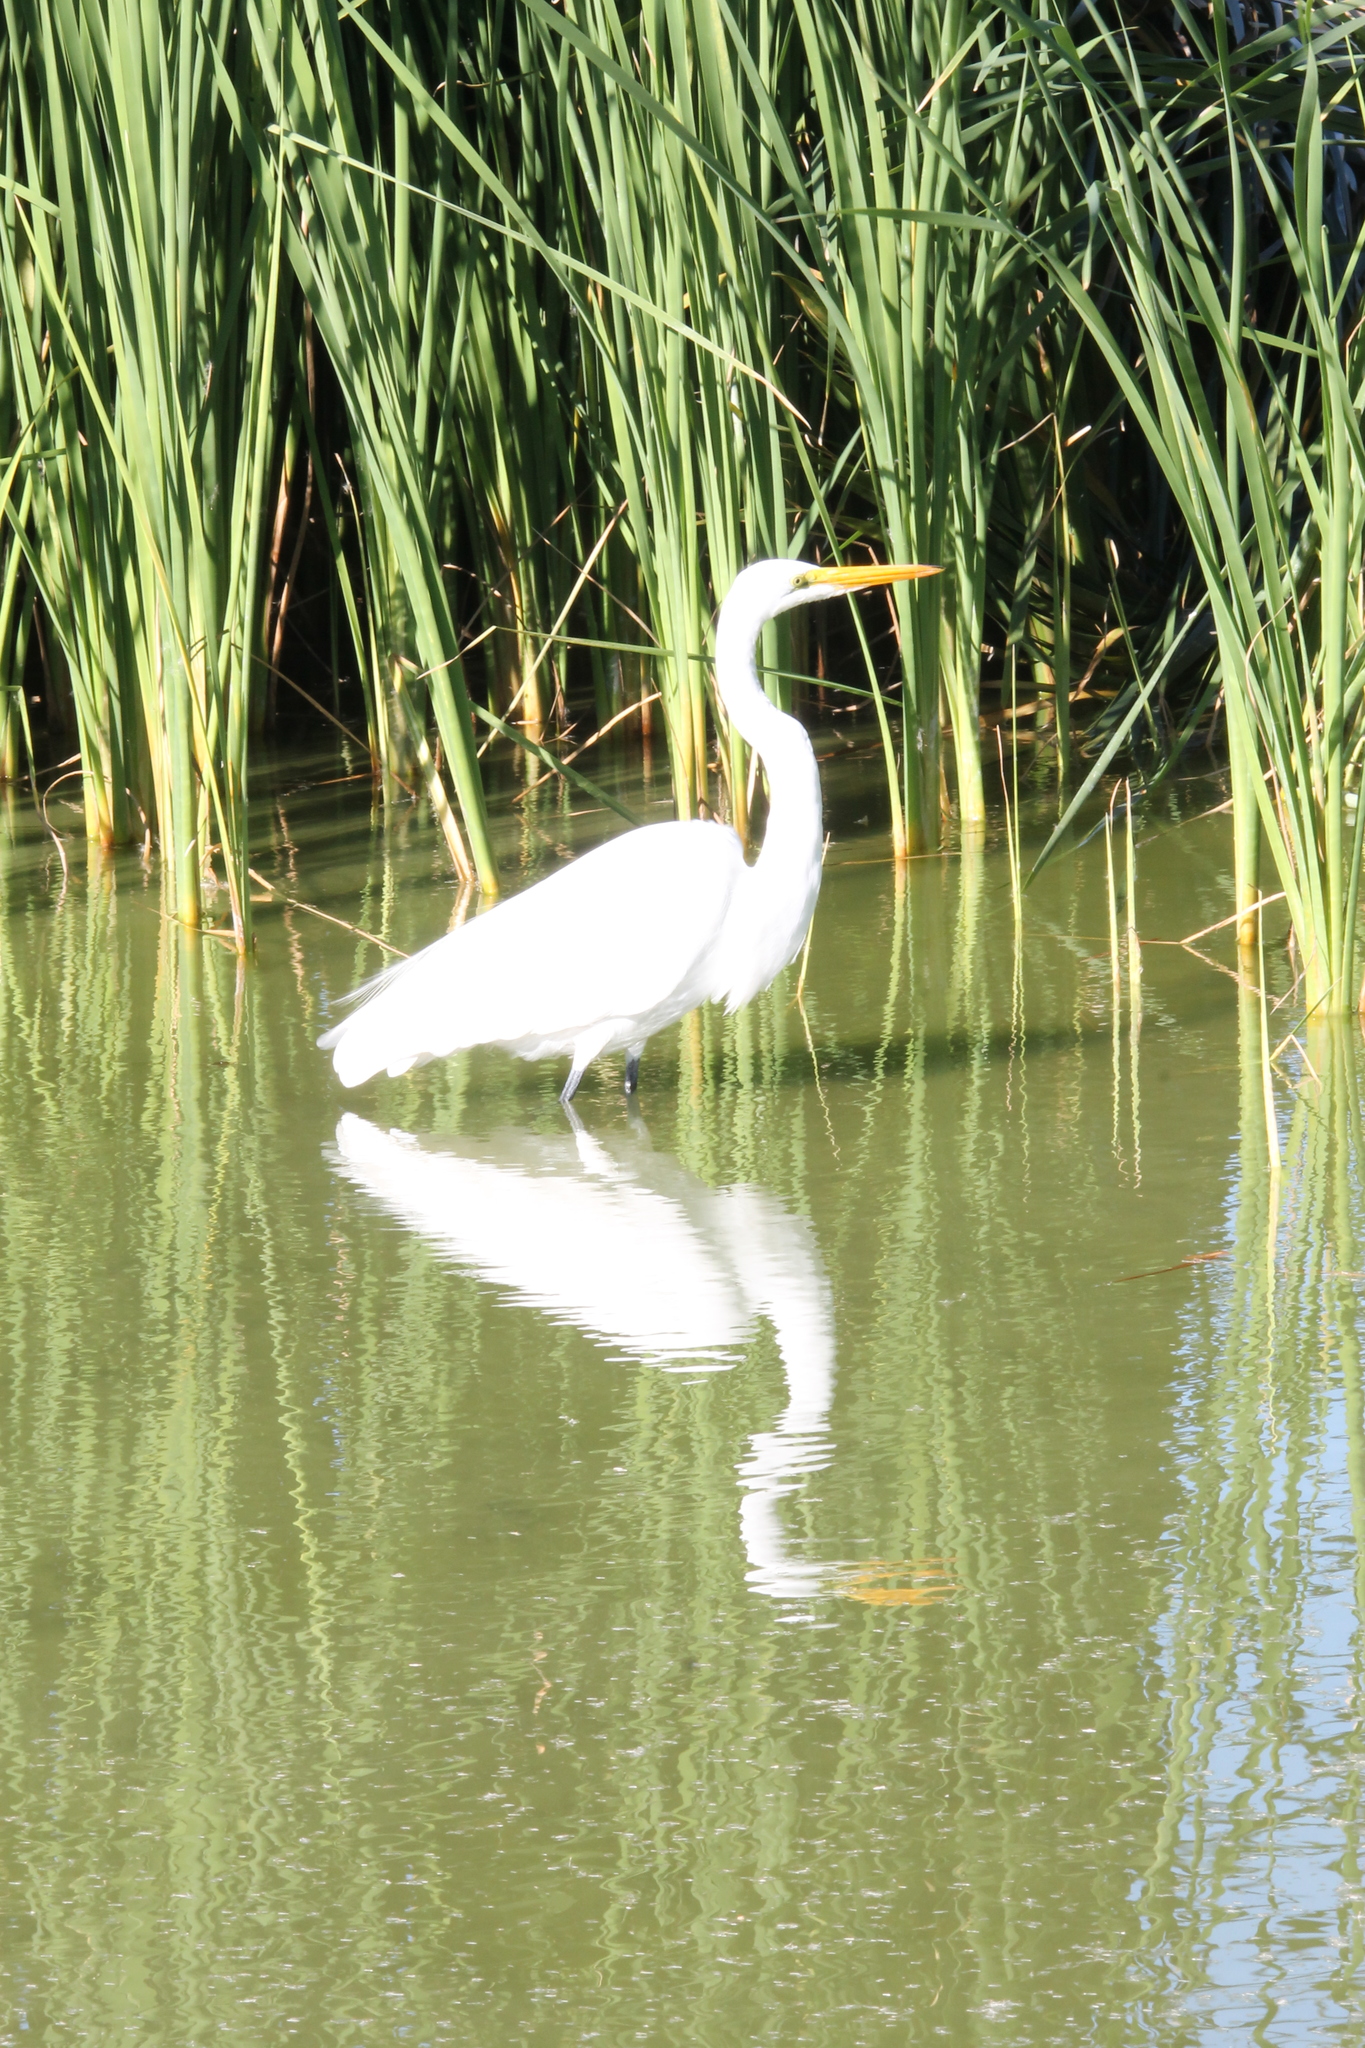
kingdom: Animalia
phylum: Chordata
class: Aves
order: Pelecaniformes
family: Ardeidae
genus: Ardea
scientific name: Ardea alba
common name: Great egret
